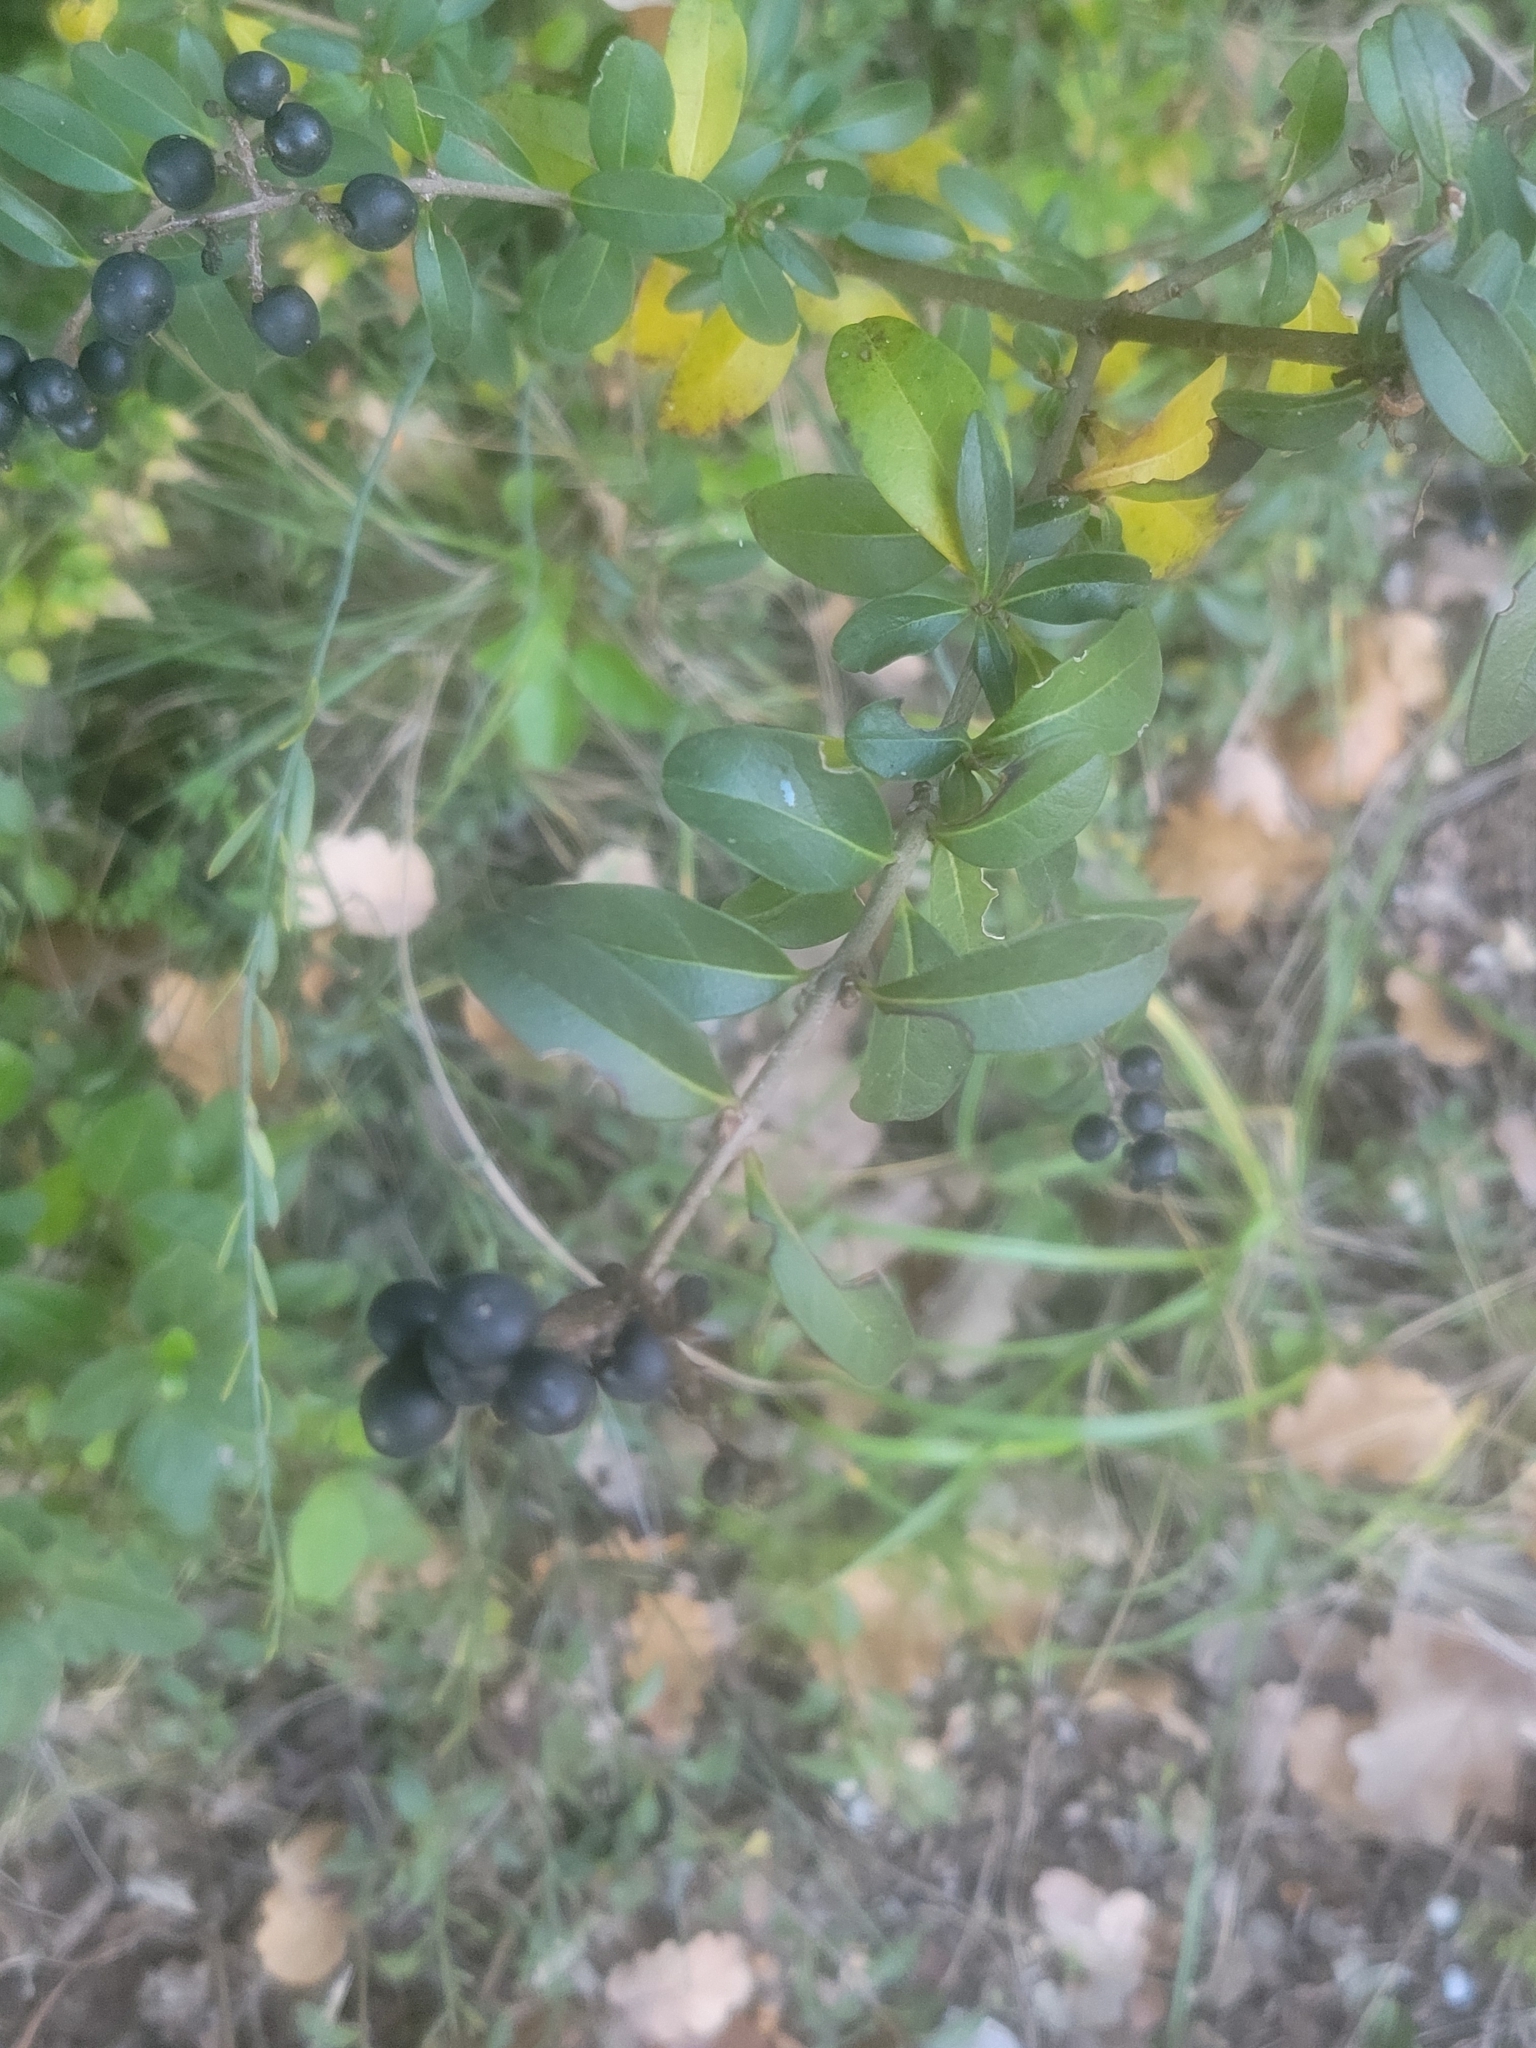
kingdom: Plantae
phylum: Tracheophyta
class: Magnoliopsida
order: Lamiales
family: Oleaceae
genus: Ligustrum
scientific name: Ligustrum vulgare
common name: Wild privet
